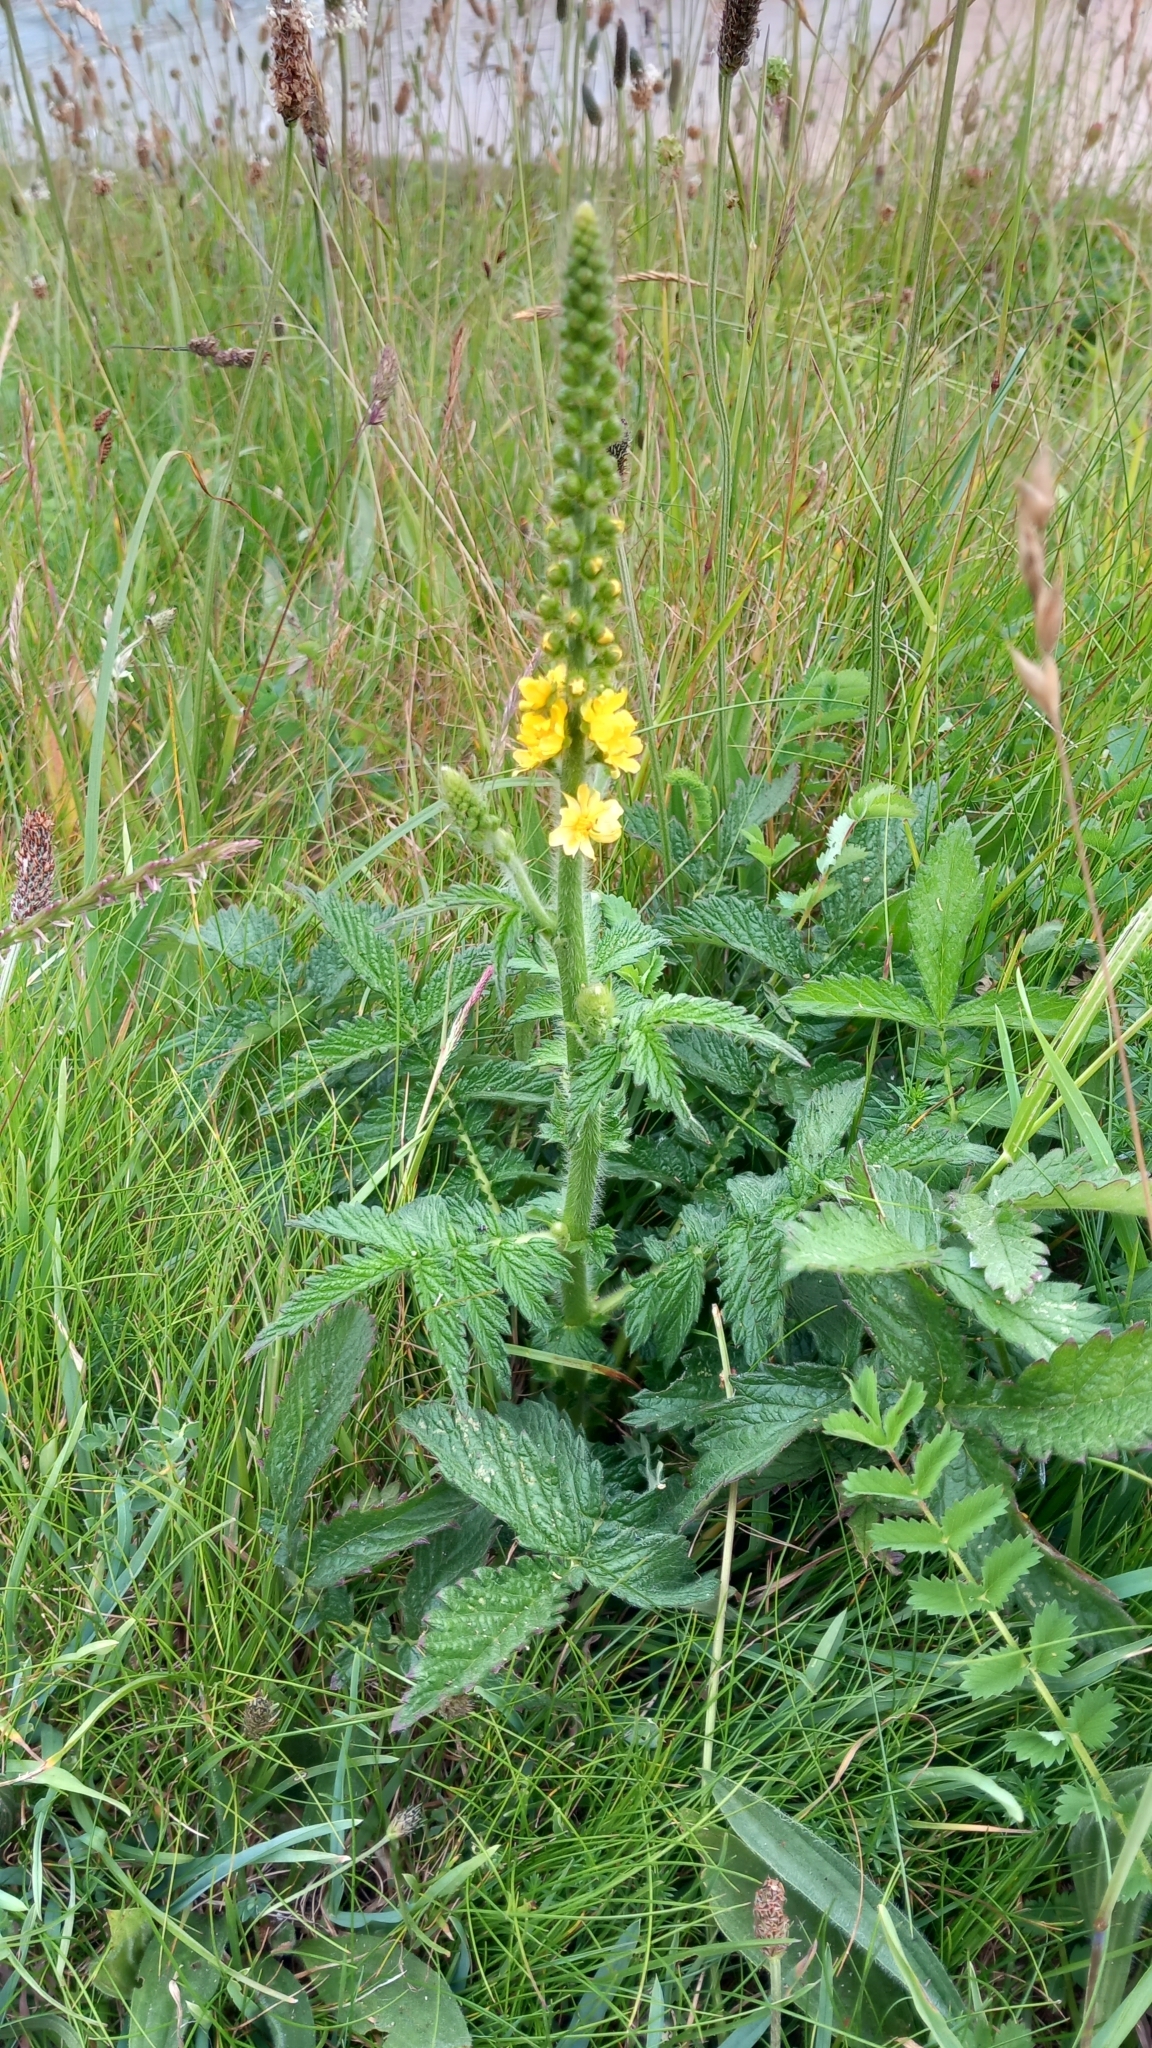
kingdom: Plantae
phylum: Tracheophyta
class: Magnoliopsida
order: Rosales
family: Rosaceae
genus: Agrimonia
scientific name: Agrimonia eupatoria
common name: Agrimony
